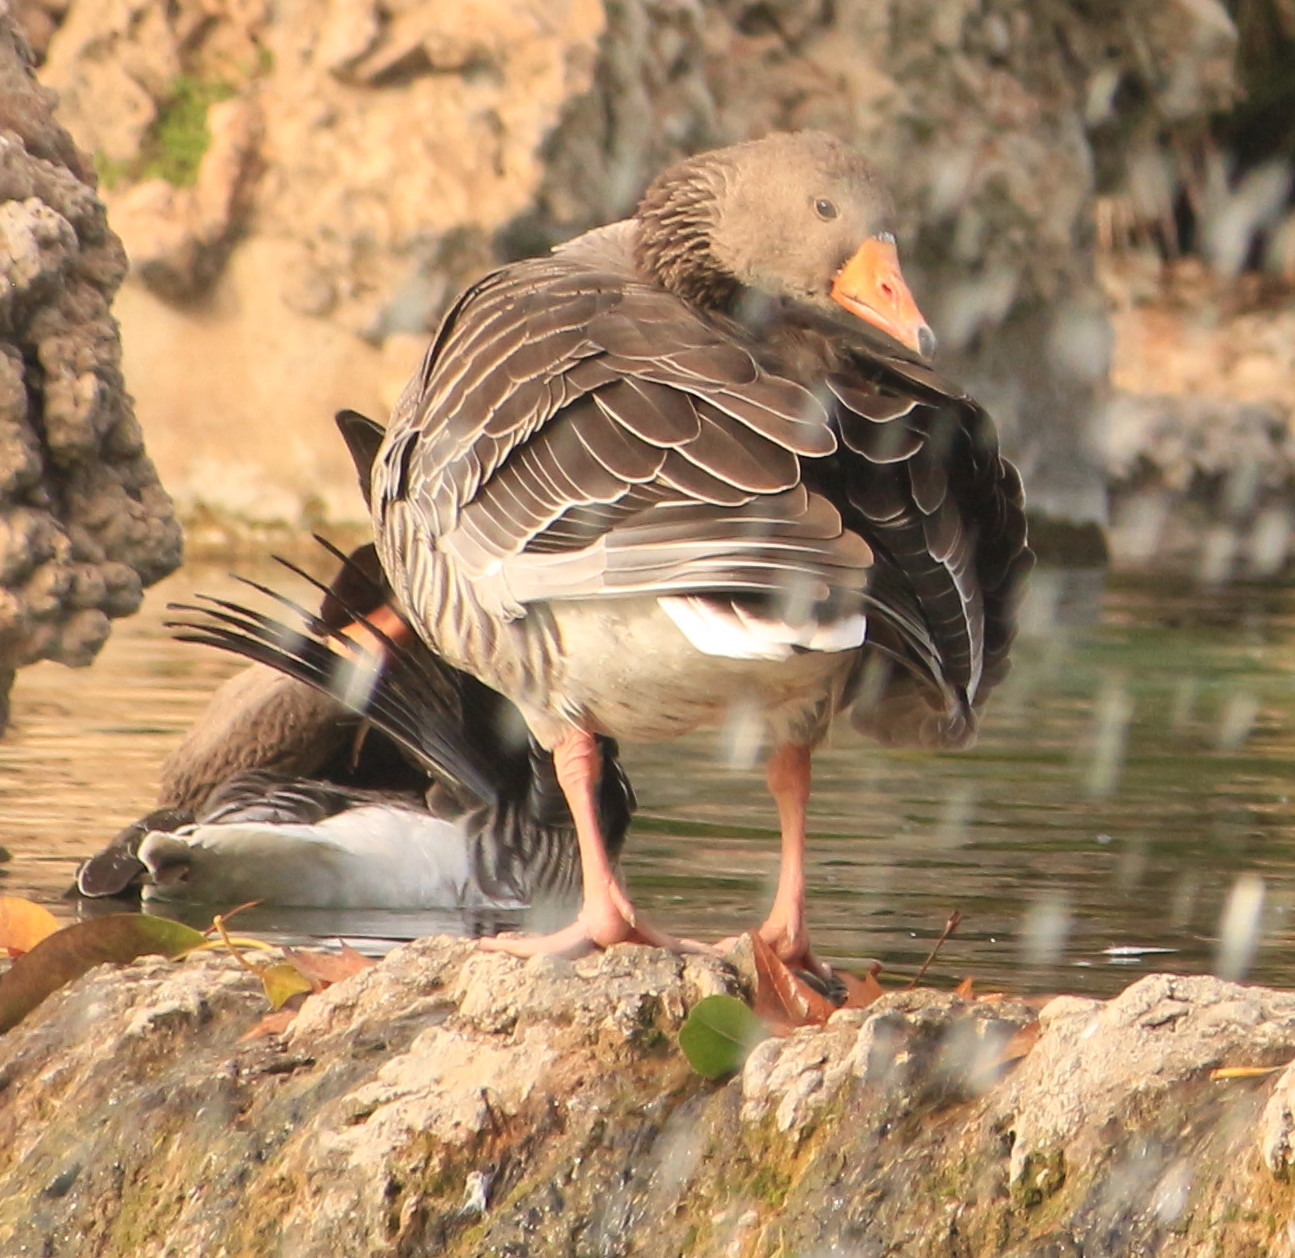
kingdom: Animalia
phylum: Chordata
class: Aves
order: Anseriformes
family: Anatidae
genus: Anser
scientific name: Anser anser
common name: Greylag goose
